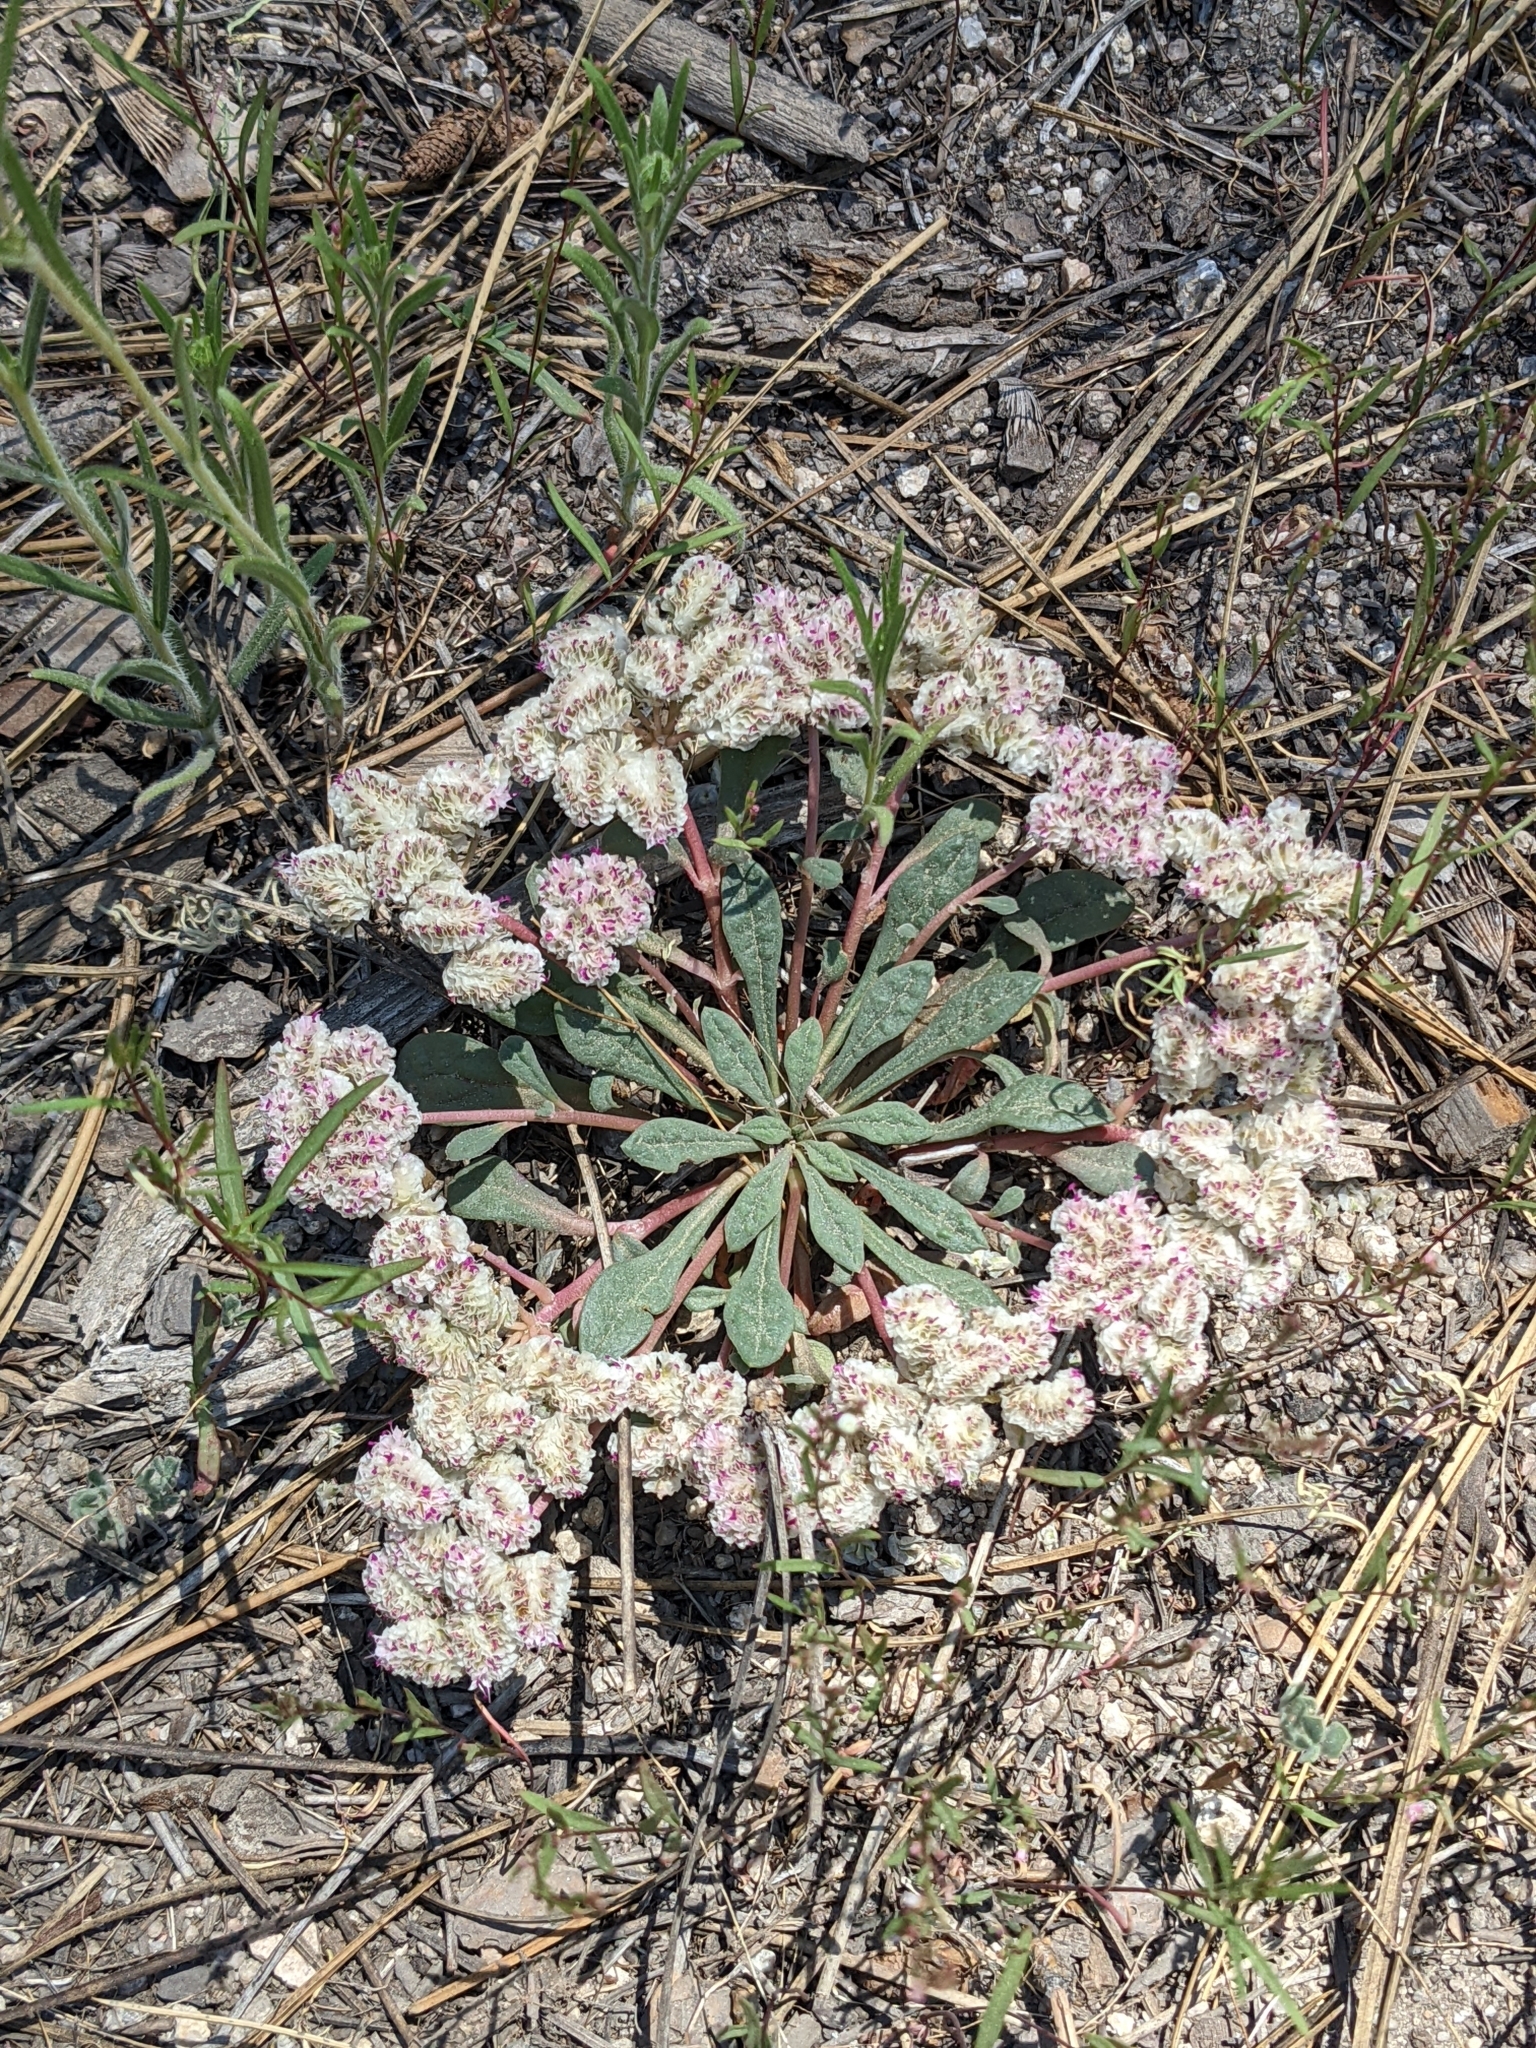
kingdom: Plantae
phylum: Tracheophyta
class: Magnoliopsida
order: Caryophyllales
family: Montiaceae
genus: Calyptridium
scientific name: Calyptridium monospermum
